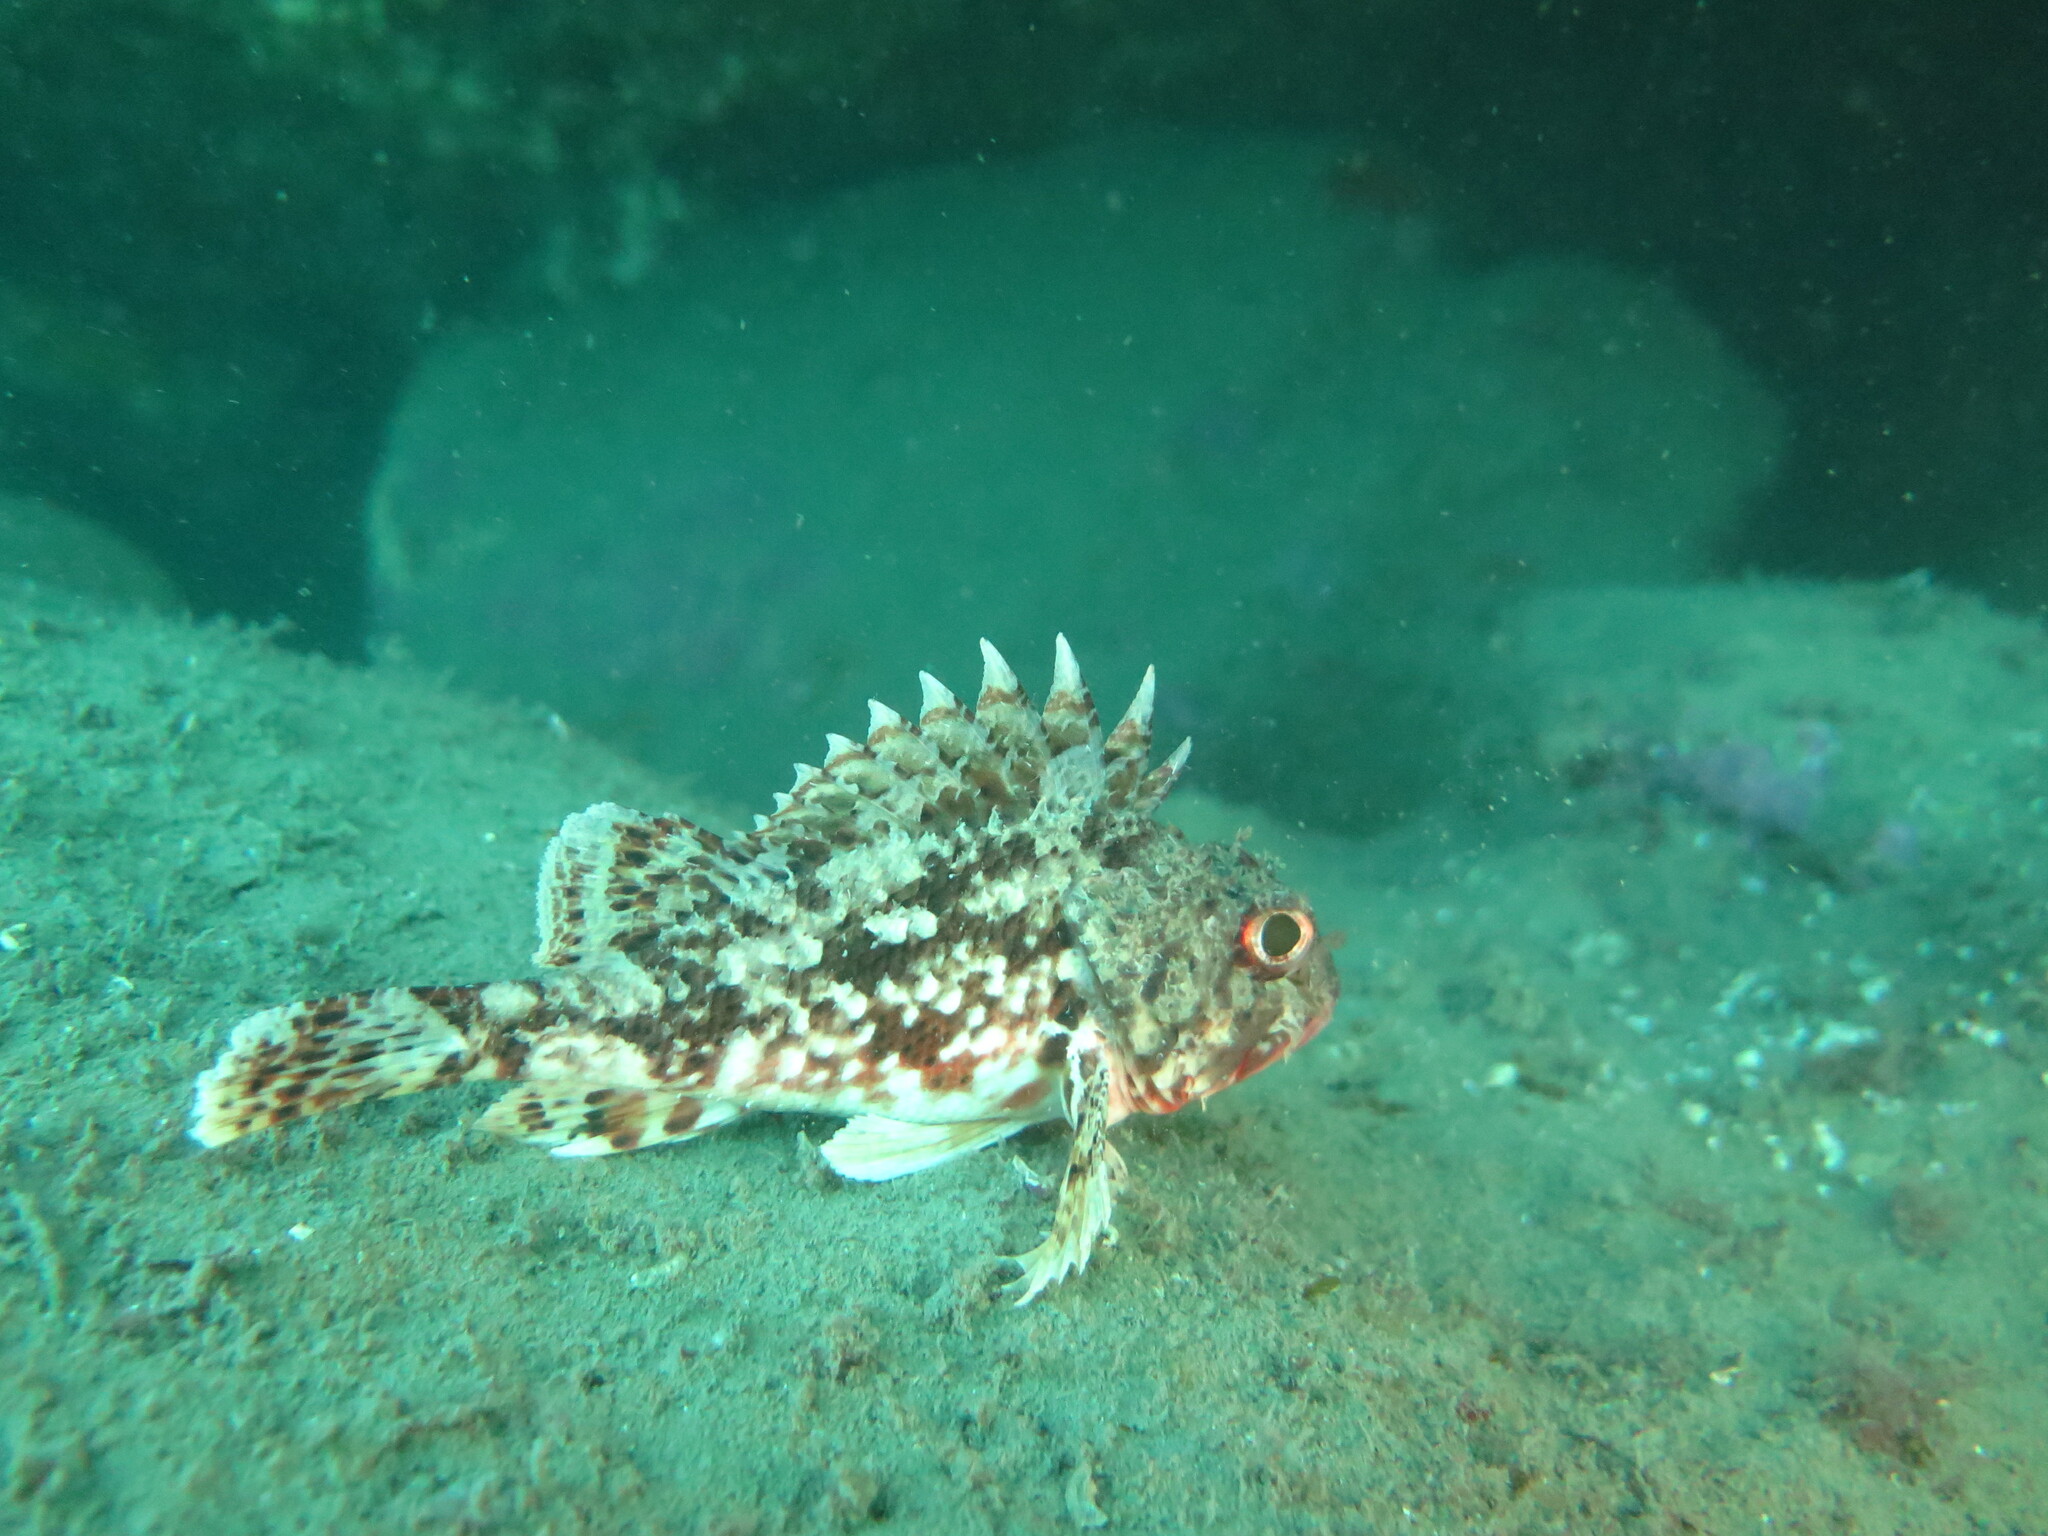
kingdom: Animalia
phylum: Chordata
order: Scorpaeniformes
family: Scorpaenidae
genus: Scorpaena
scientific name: Scorpaena notata
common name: Small red scorpionfish
